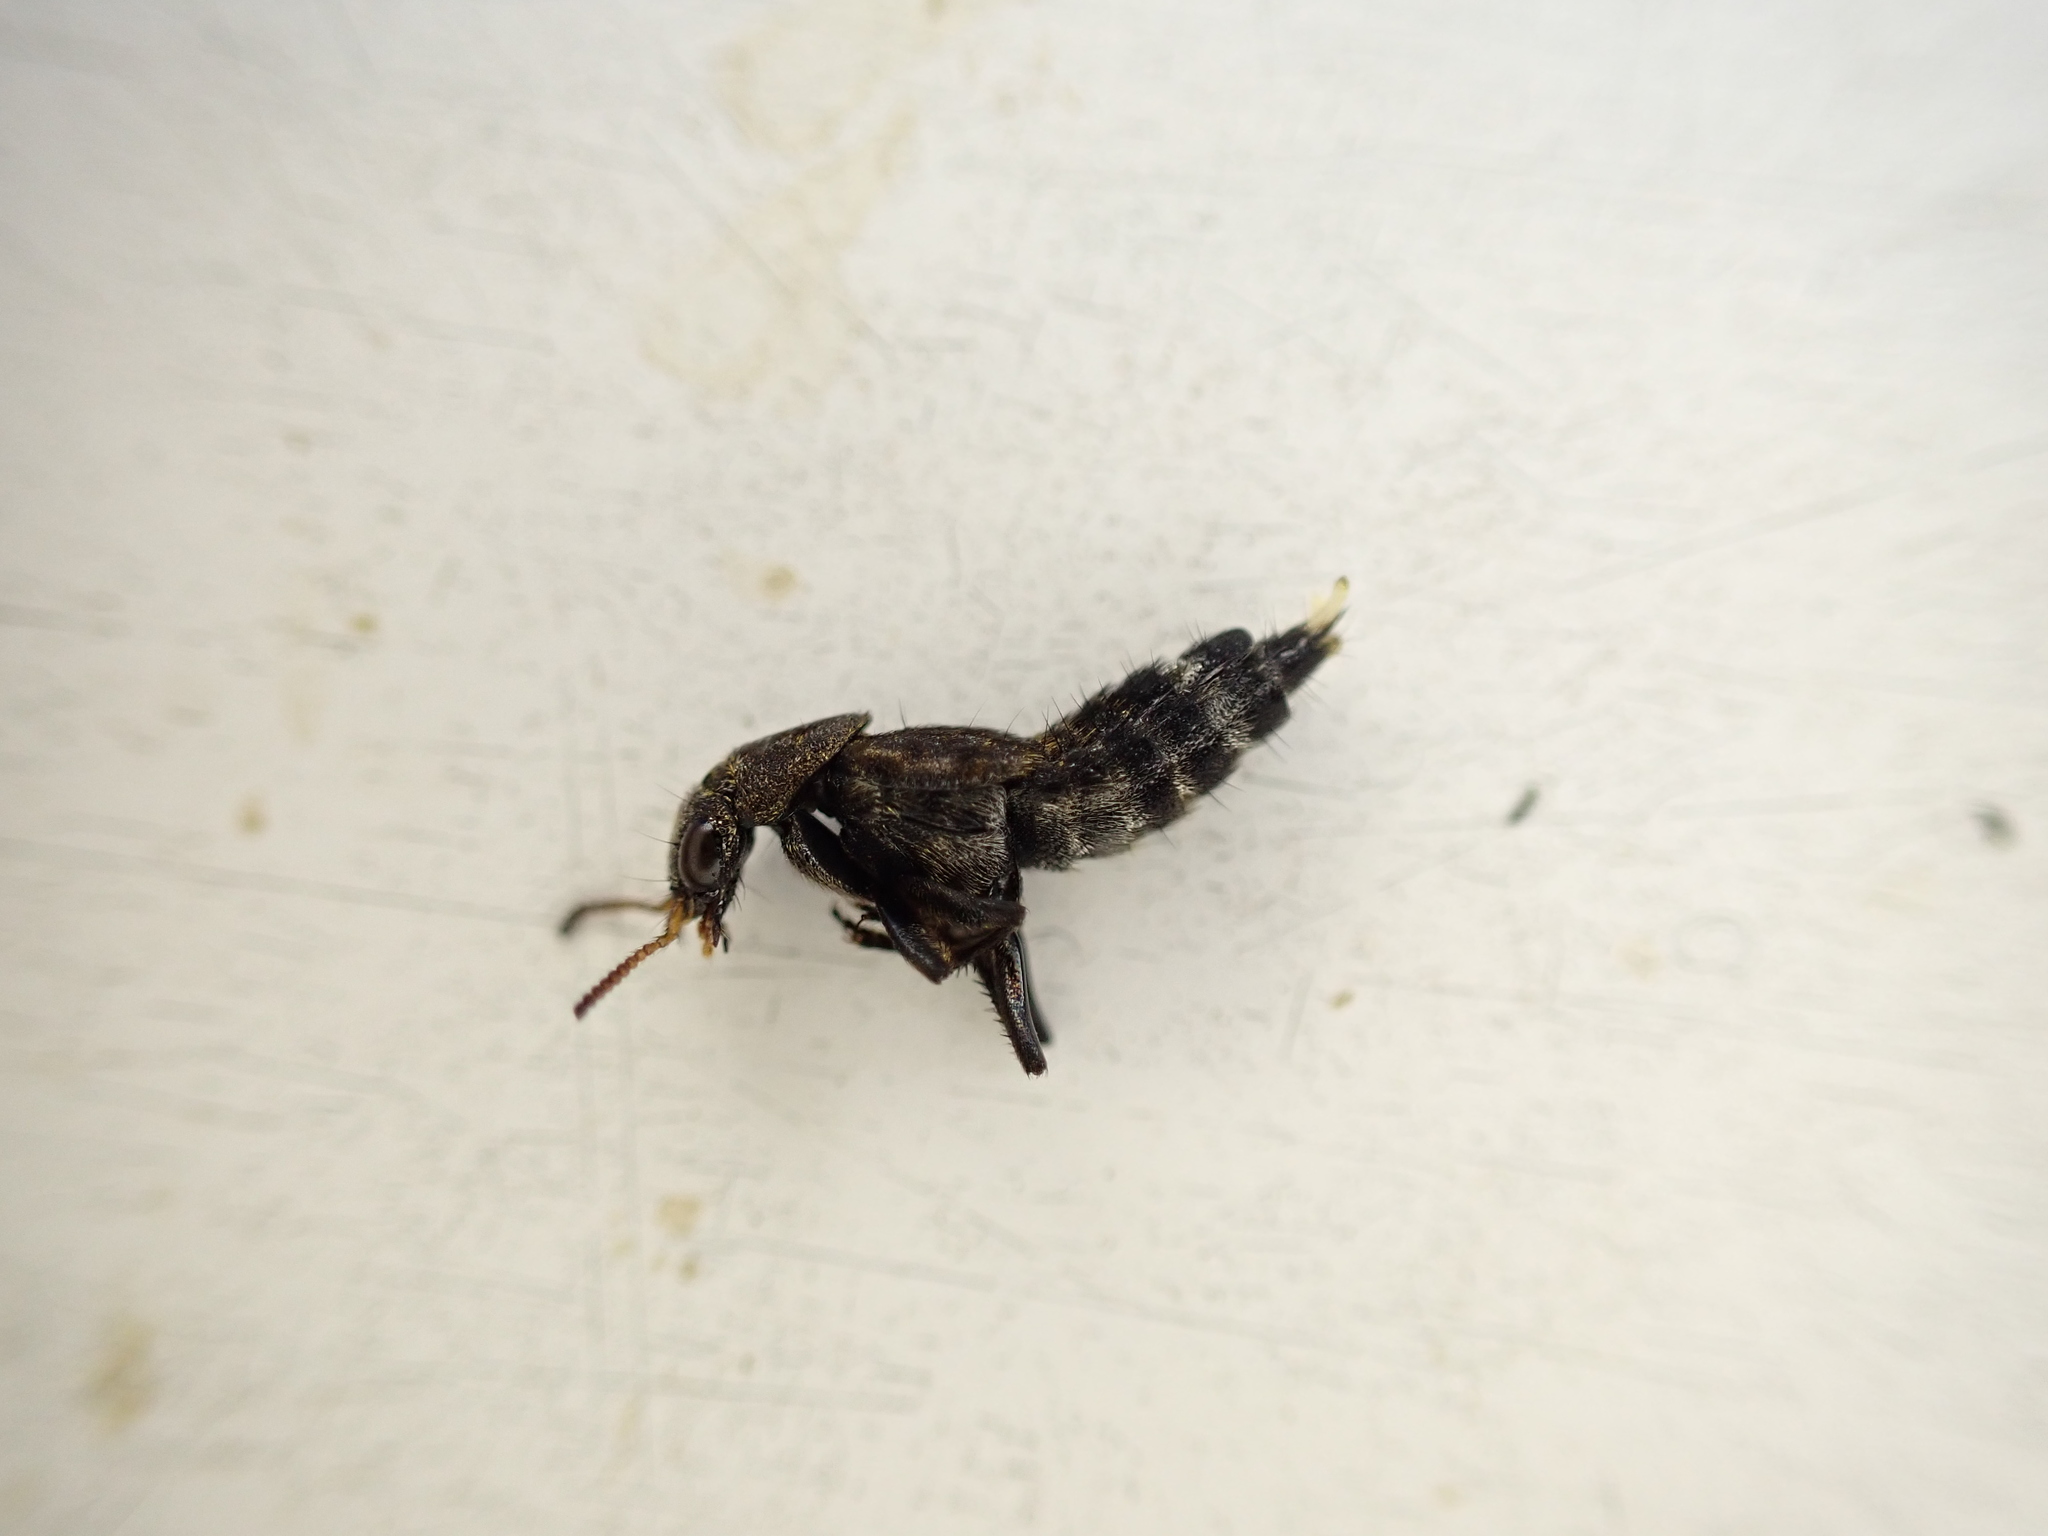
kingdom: Animalia
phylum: Arthropoda
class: Insecta
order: Coleoptera
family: Staphylinidae
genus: Ontholestes
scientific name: Ontholestes murinus
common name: Staph beetle
